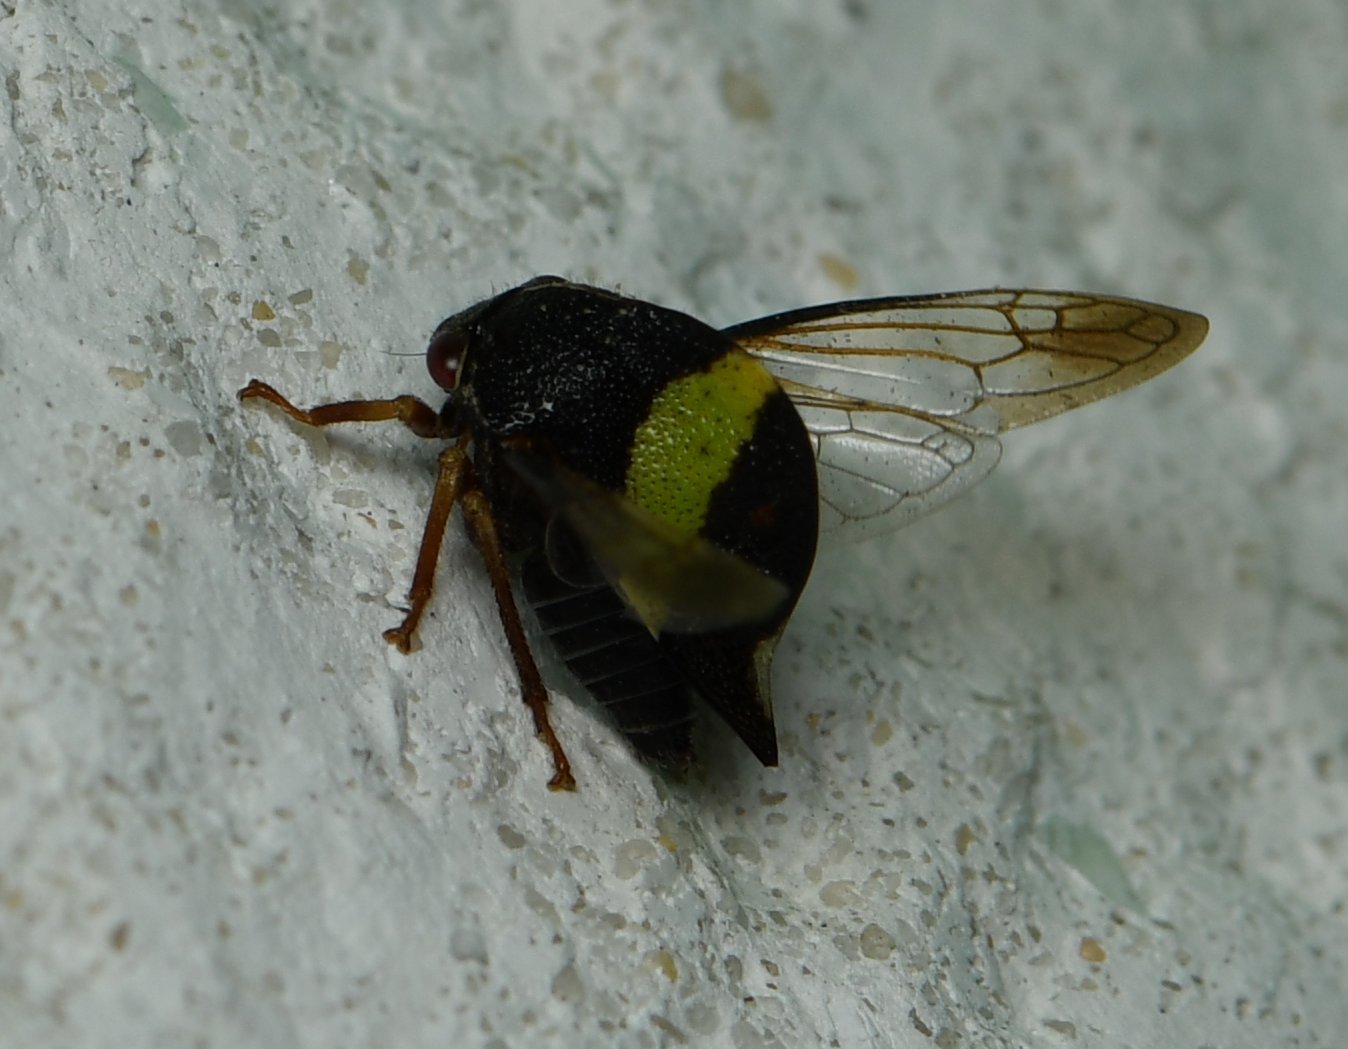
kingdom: Animalia
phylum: Arthropoda
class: Insecta
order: Hemiptera
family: Membracidae
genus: Smilia
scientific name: Smilia fasciata
